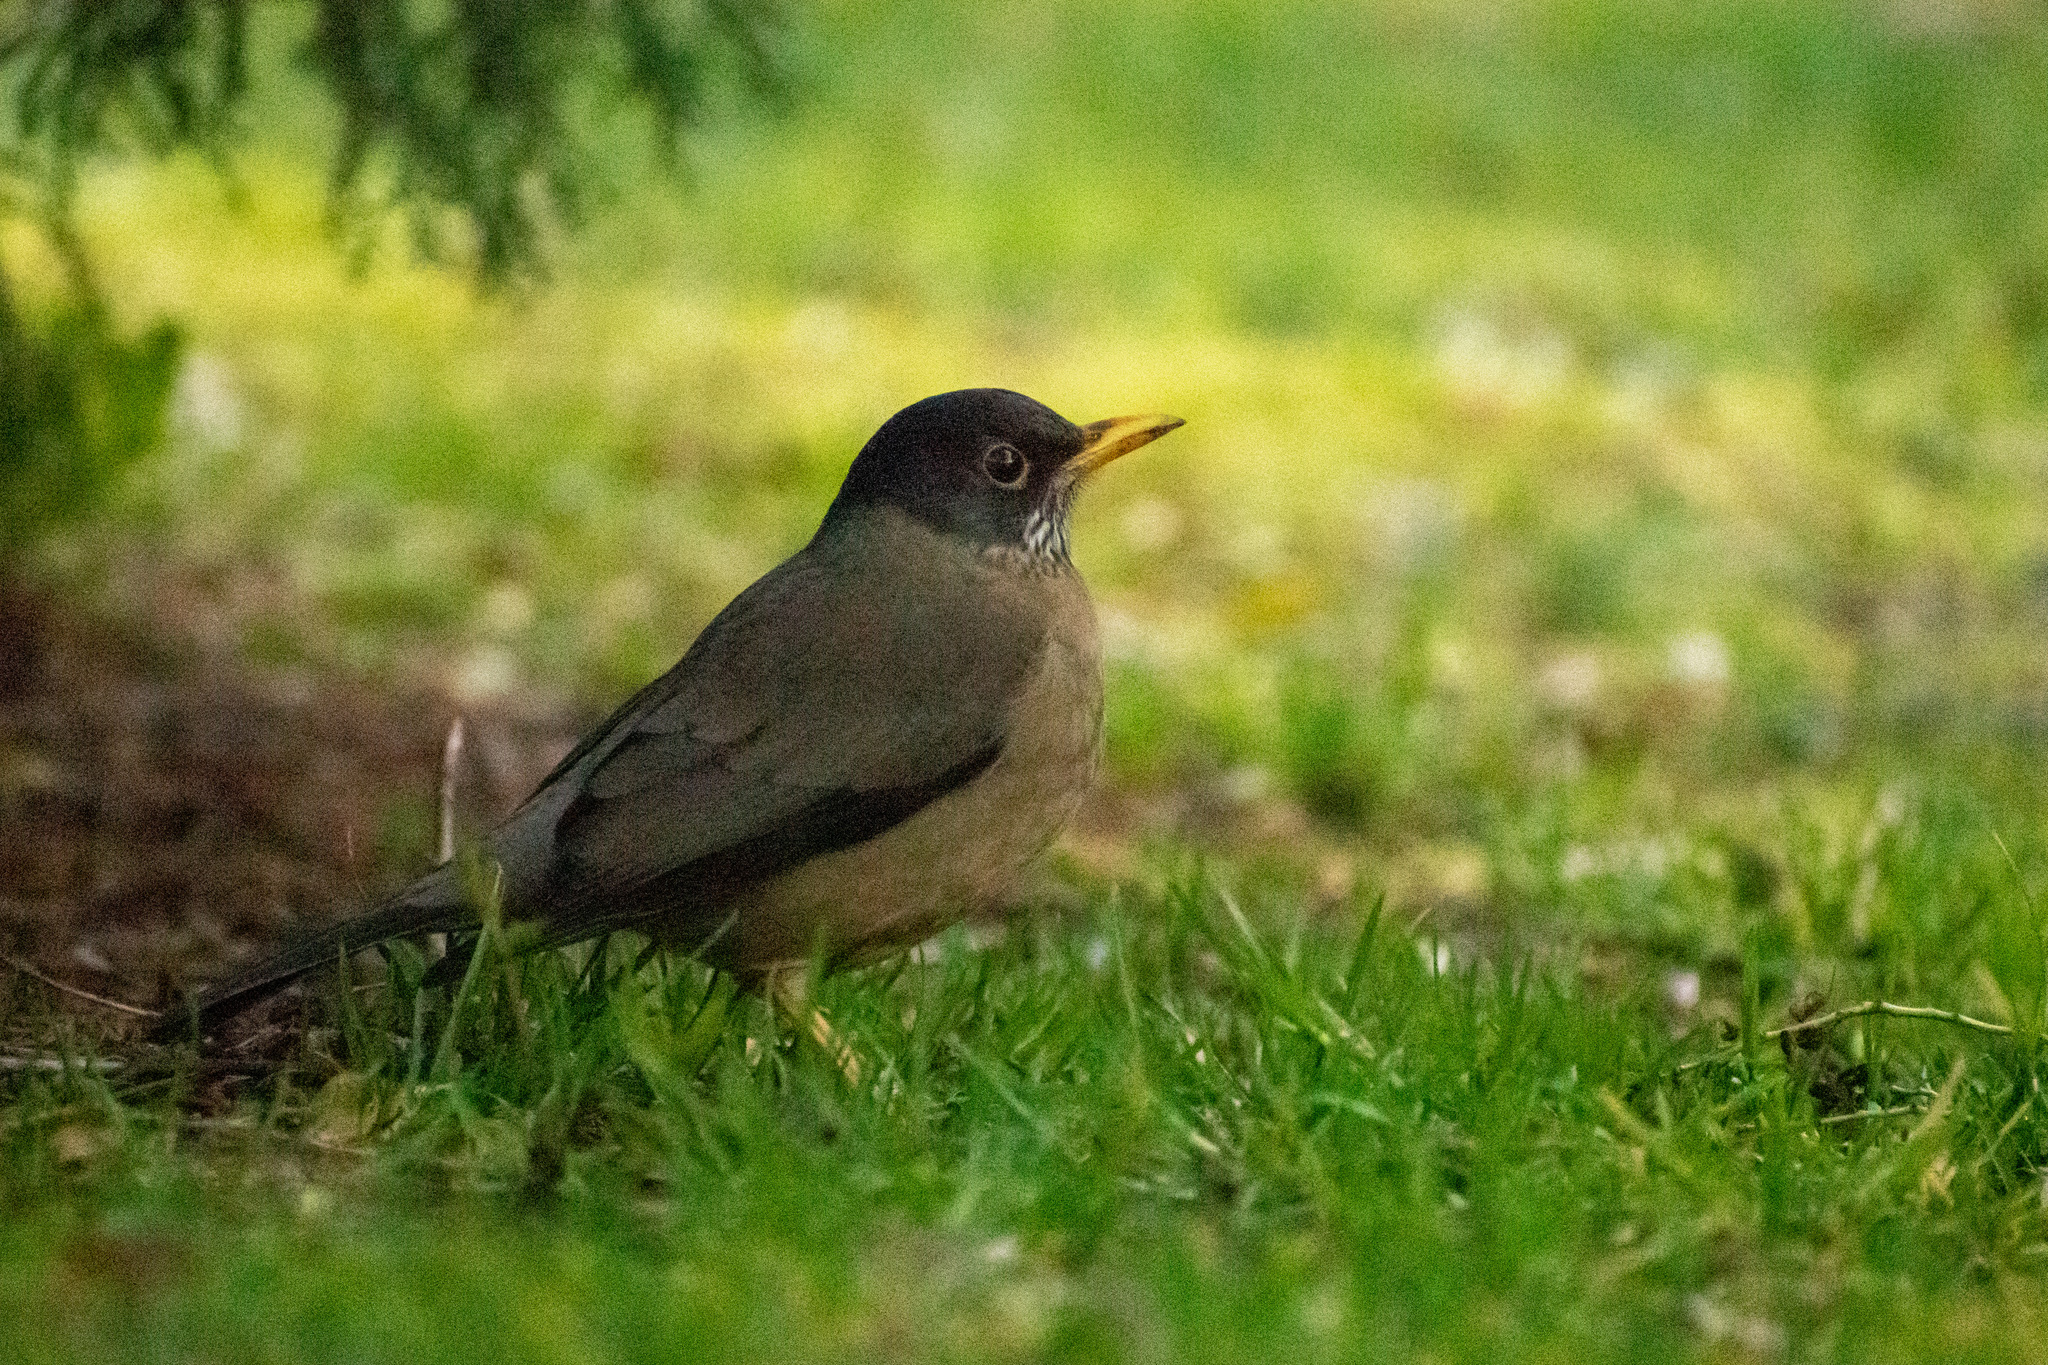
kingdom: Animalia
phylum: Chordata
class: Aves
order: Passeriformes
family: Turdidae
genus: Turdus
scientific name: Turdus falcklandii
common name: Austral thrush
